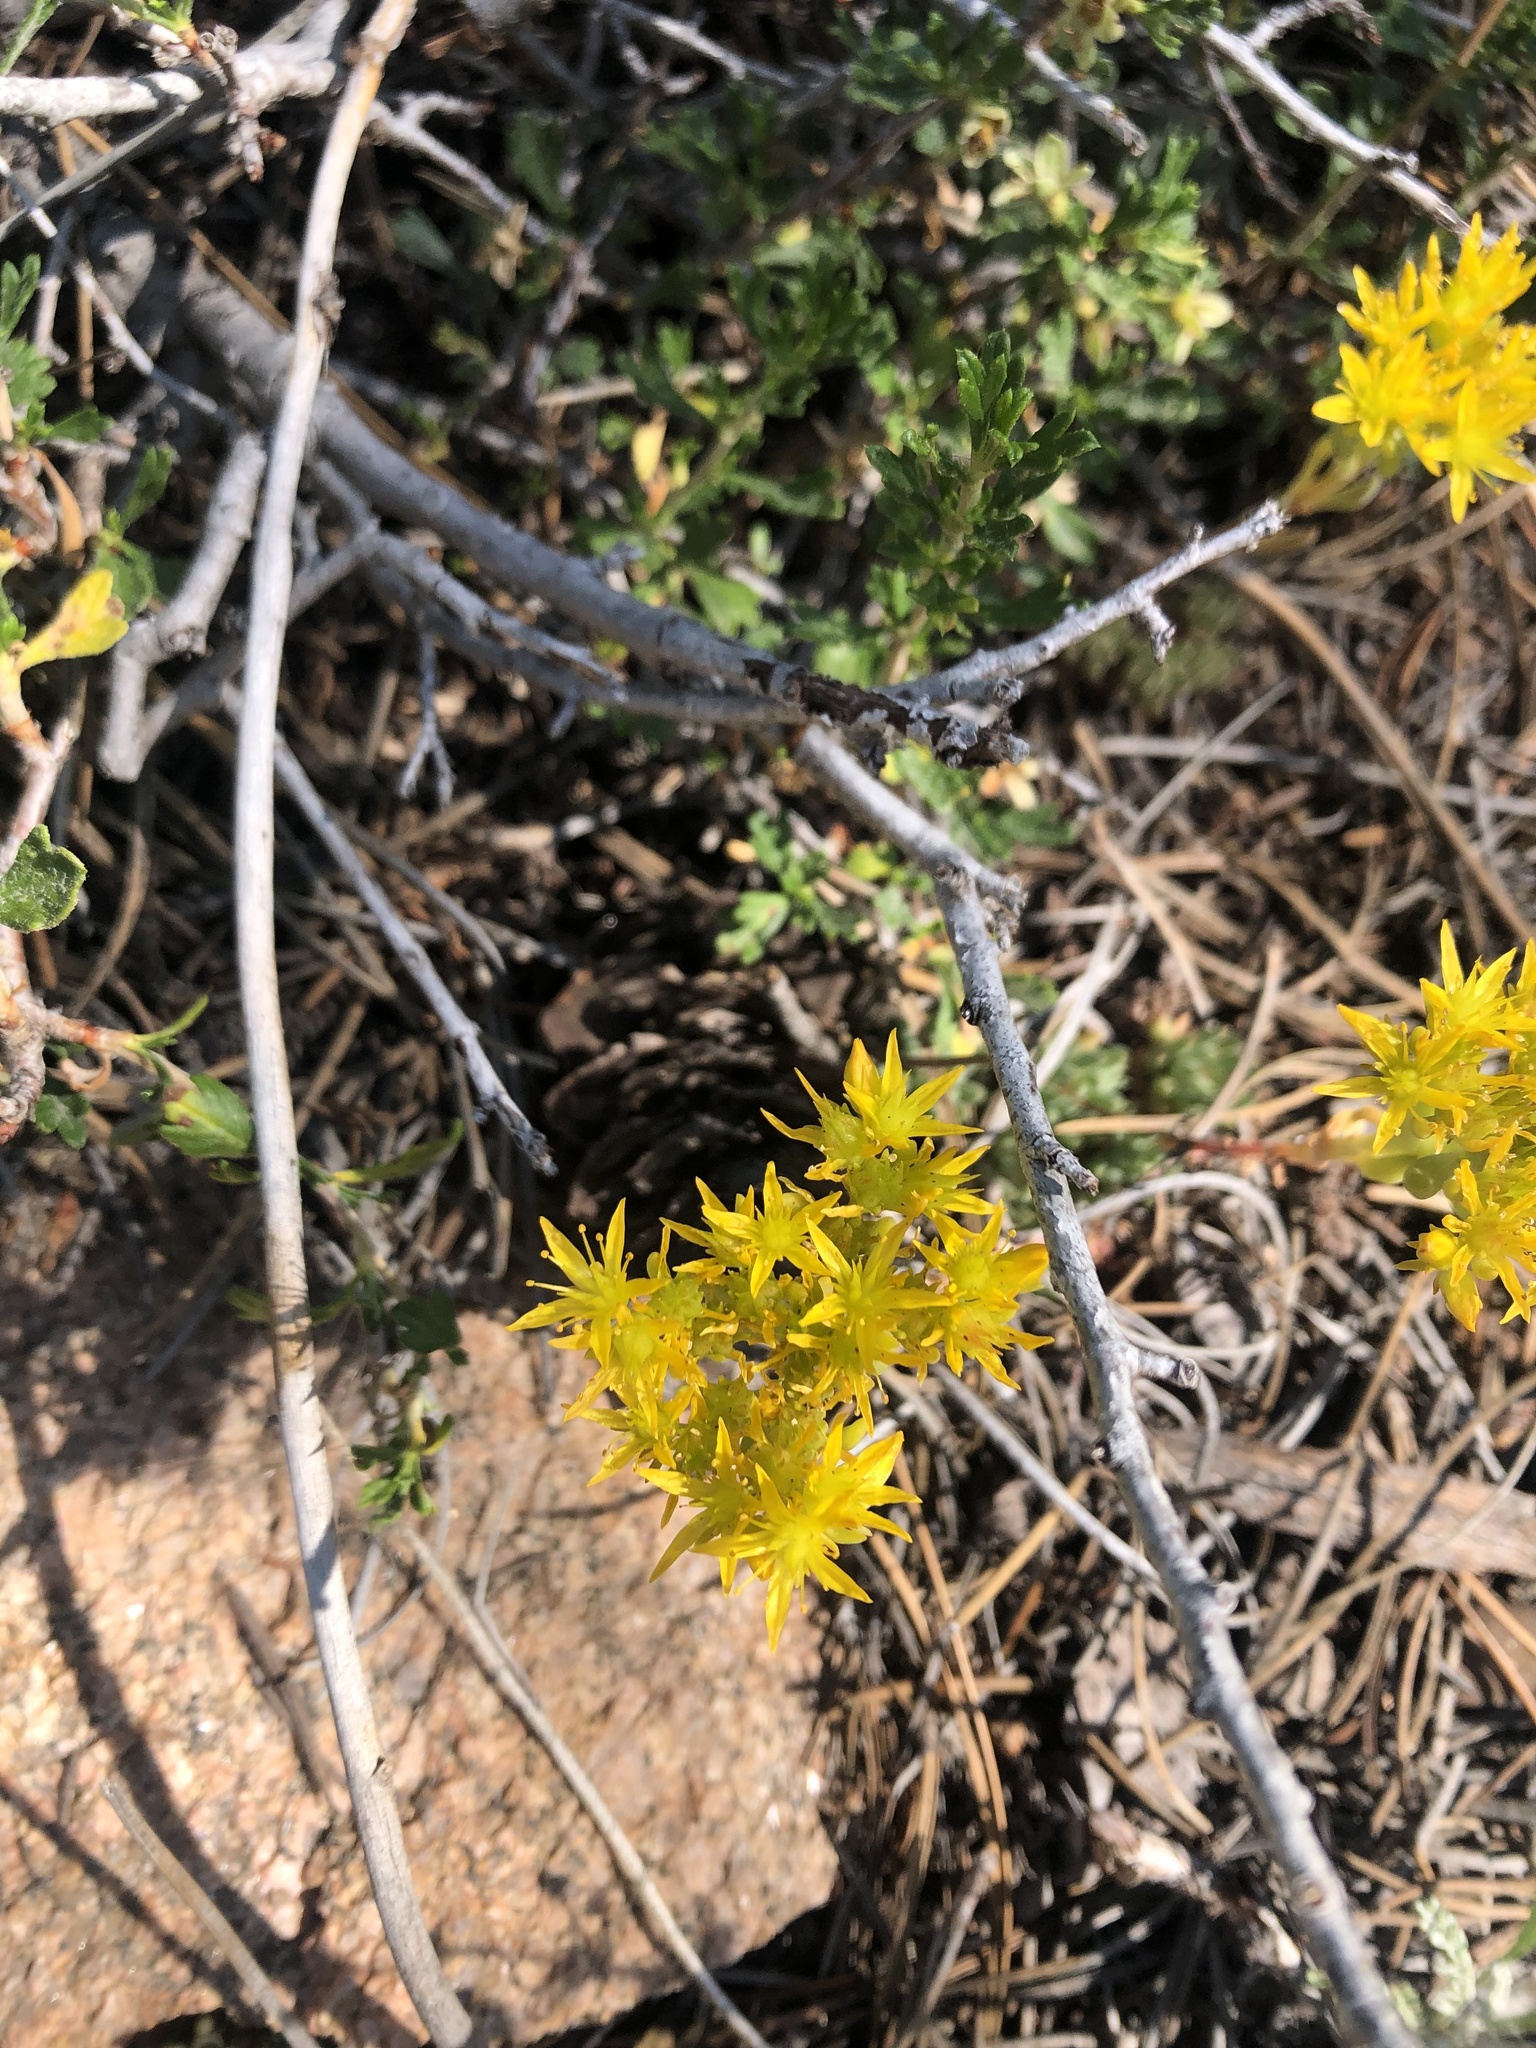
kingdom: Plantae
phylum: Tracheophyta
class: Magnoliopsida
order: Saxifragales
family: Crassulaceae
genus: Sedum
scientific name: Sedum lanceolatum
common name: Common stonecrop
